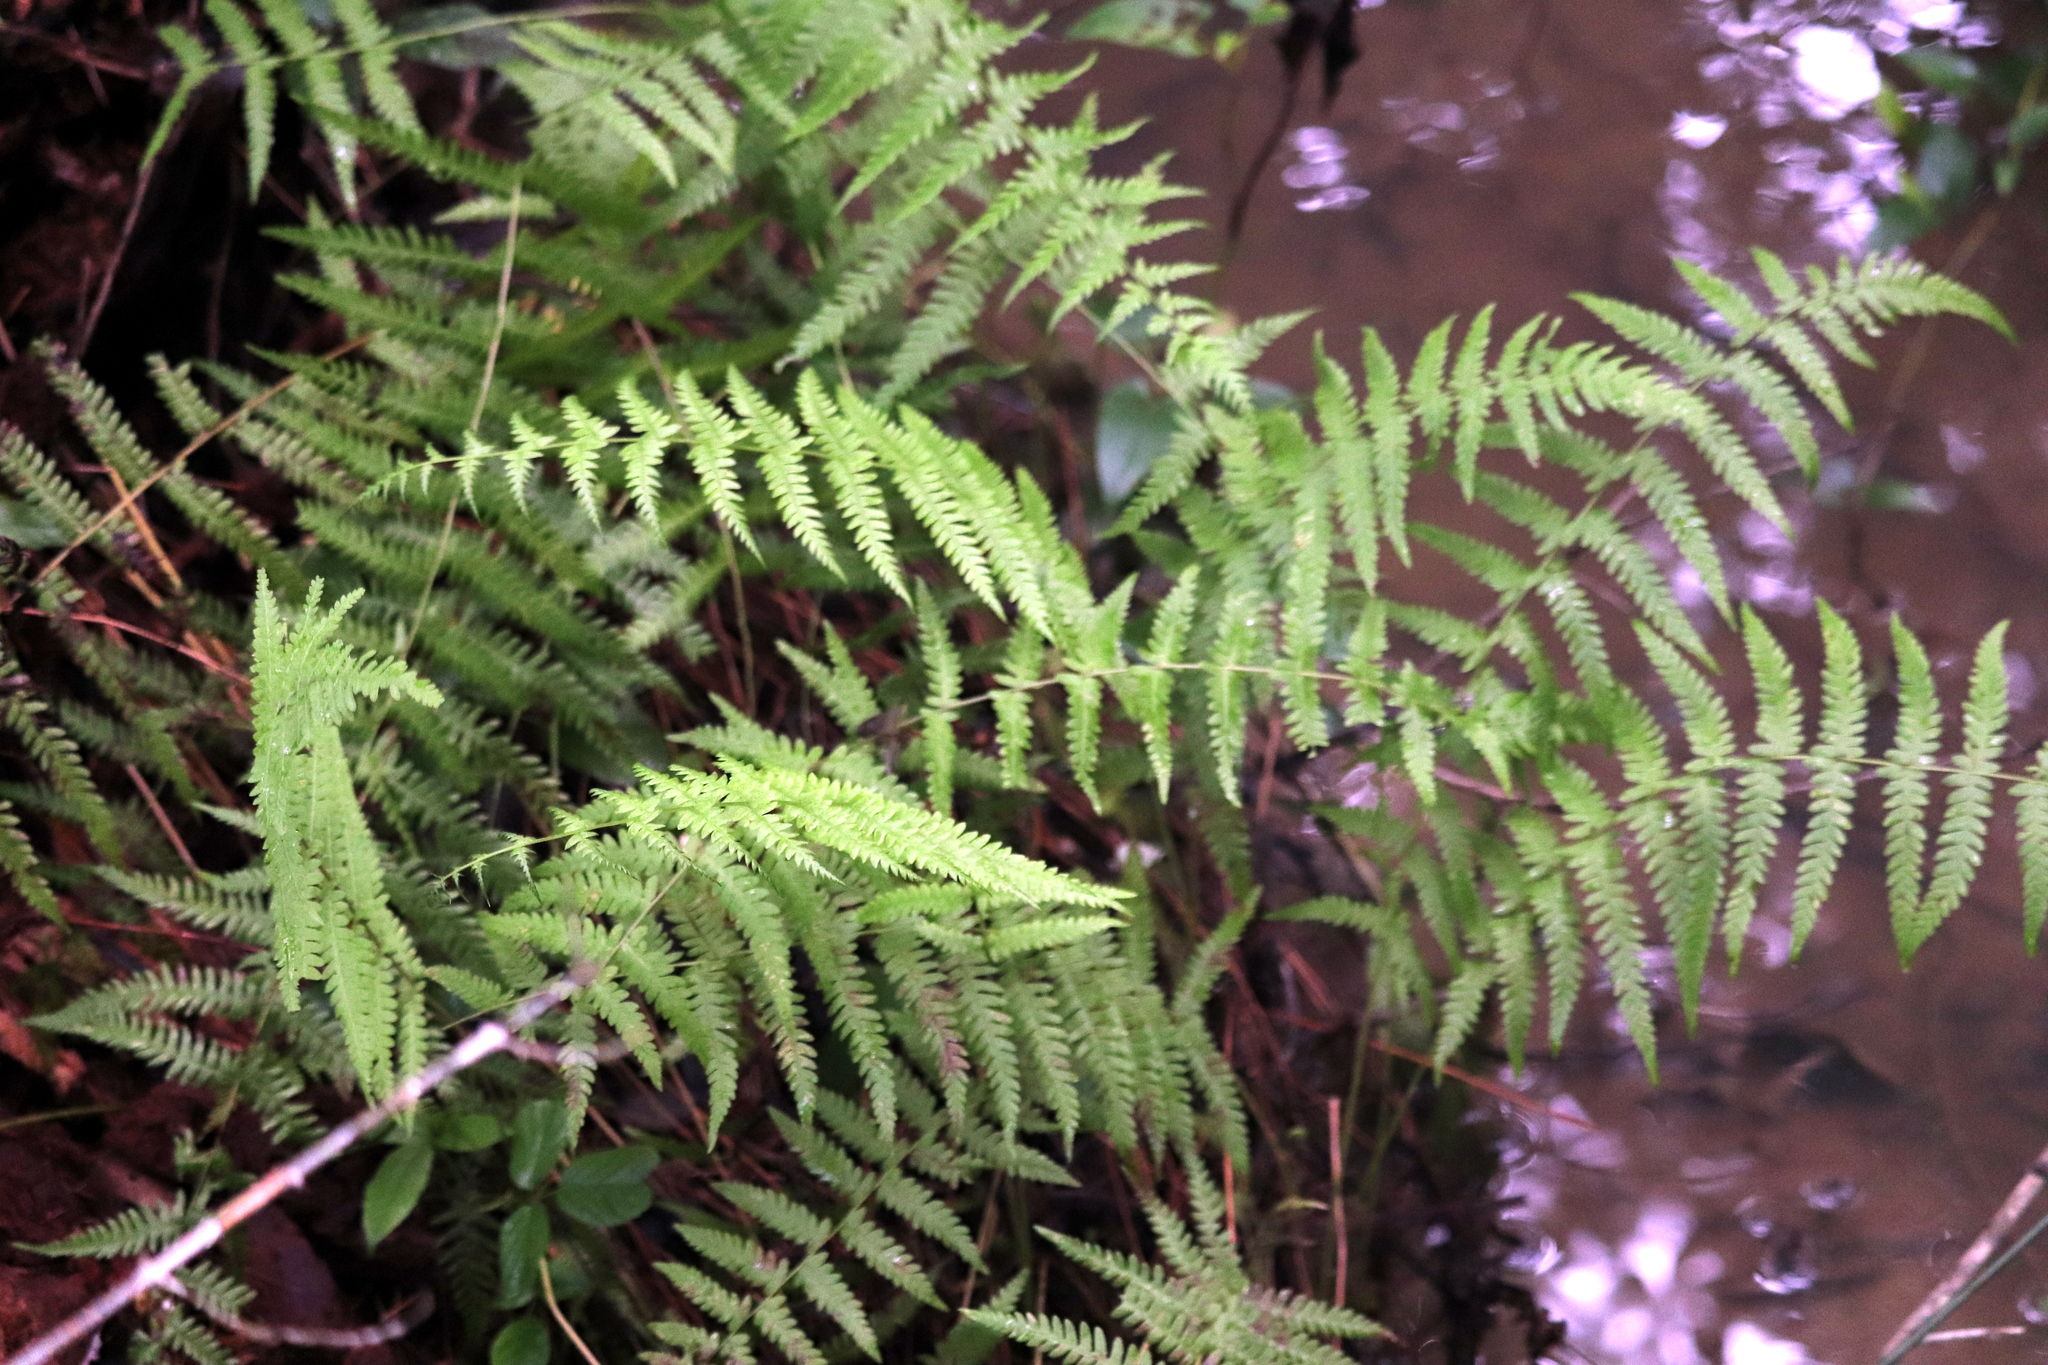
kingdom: Plantae
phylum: Tracheophyta
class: Polypodiopsida
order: Polypodiales
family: Thelypteridaceae
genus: Thelypteris
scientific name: Thelypteris palustris
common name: Marsh fern
